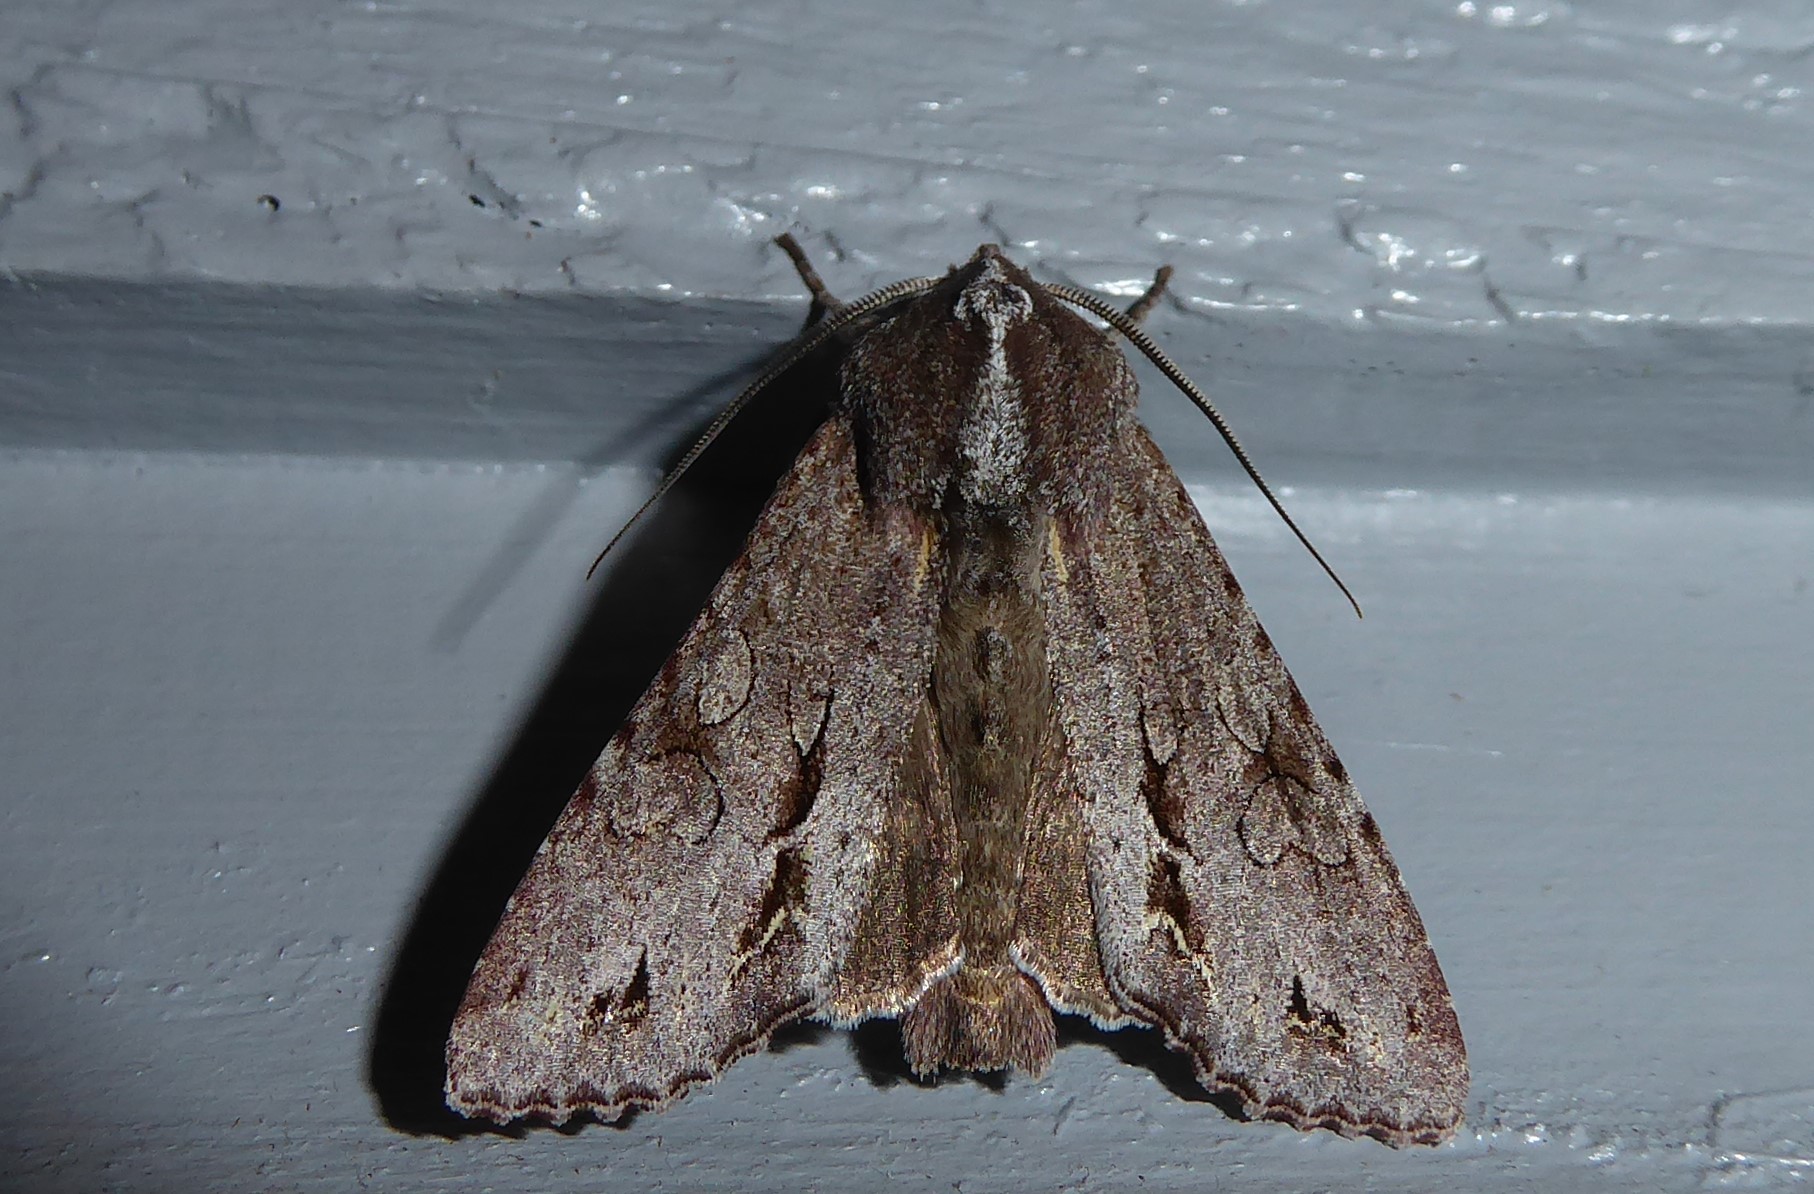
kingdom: Animalia
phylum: Arthropoda
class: Insecta
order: Lepidoptera
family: Noctuidae
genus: Ichneutica
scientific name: Ichneutica
